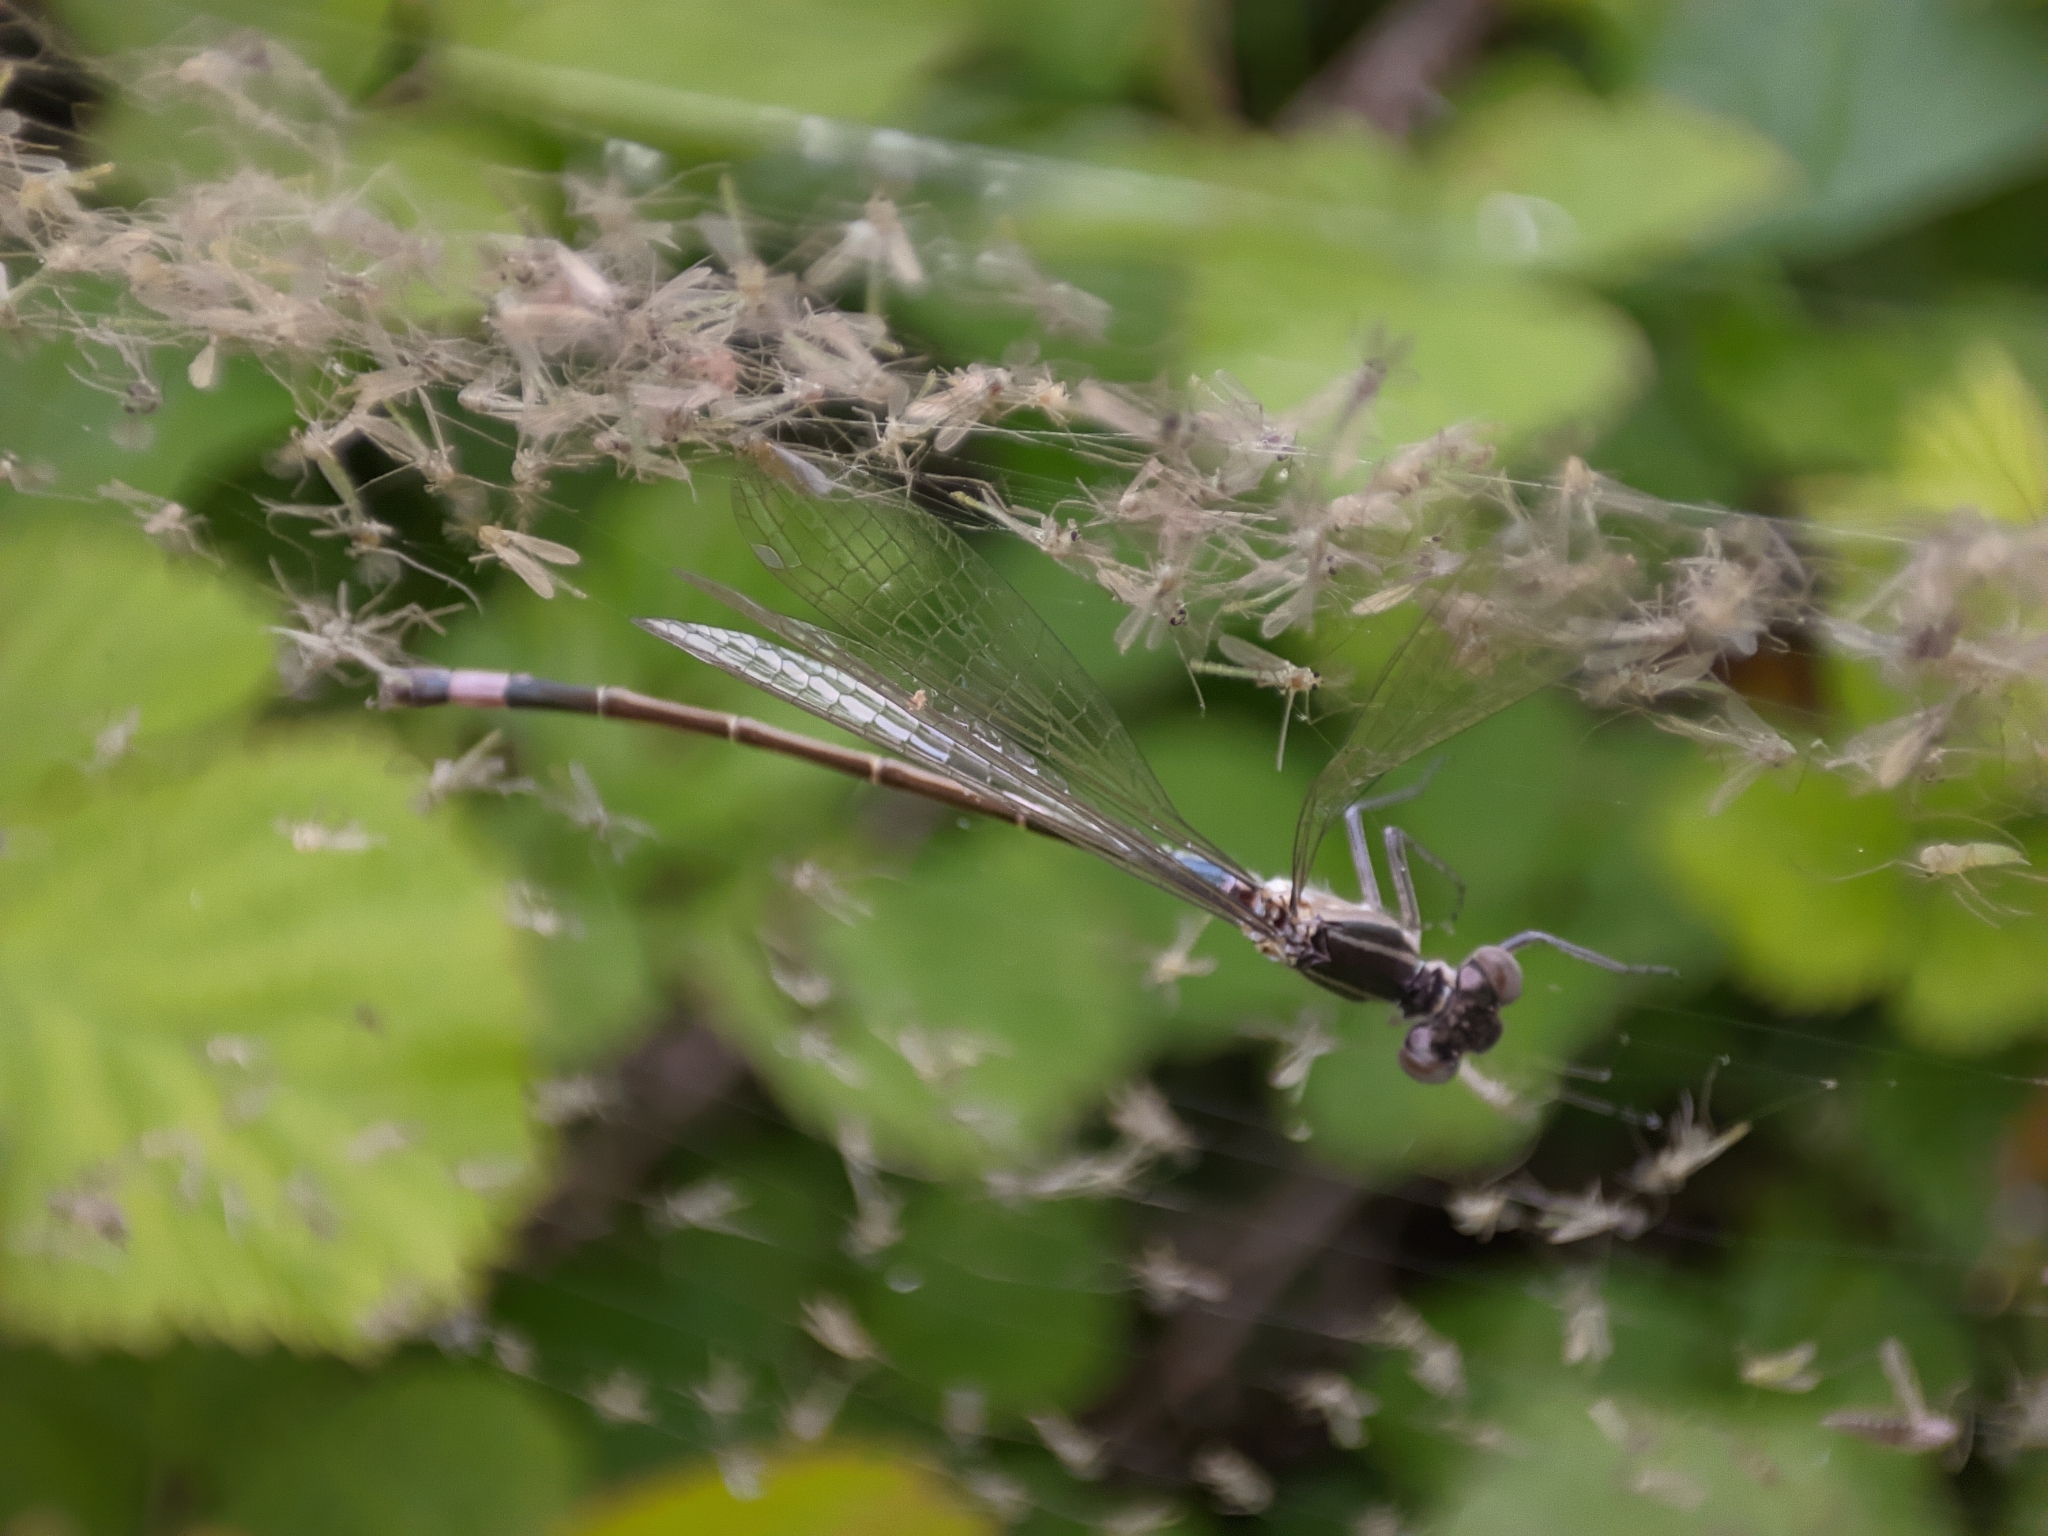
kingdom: Animalia
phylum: Arthropoda
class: Insecta
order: Odonata
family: Coenagrionidae
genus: Ischnura
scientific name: Ischnura elegans
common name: Blue-tailed damselfly
